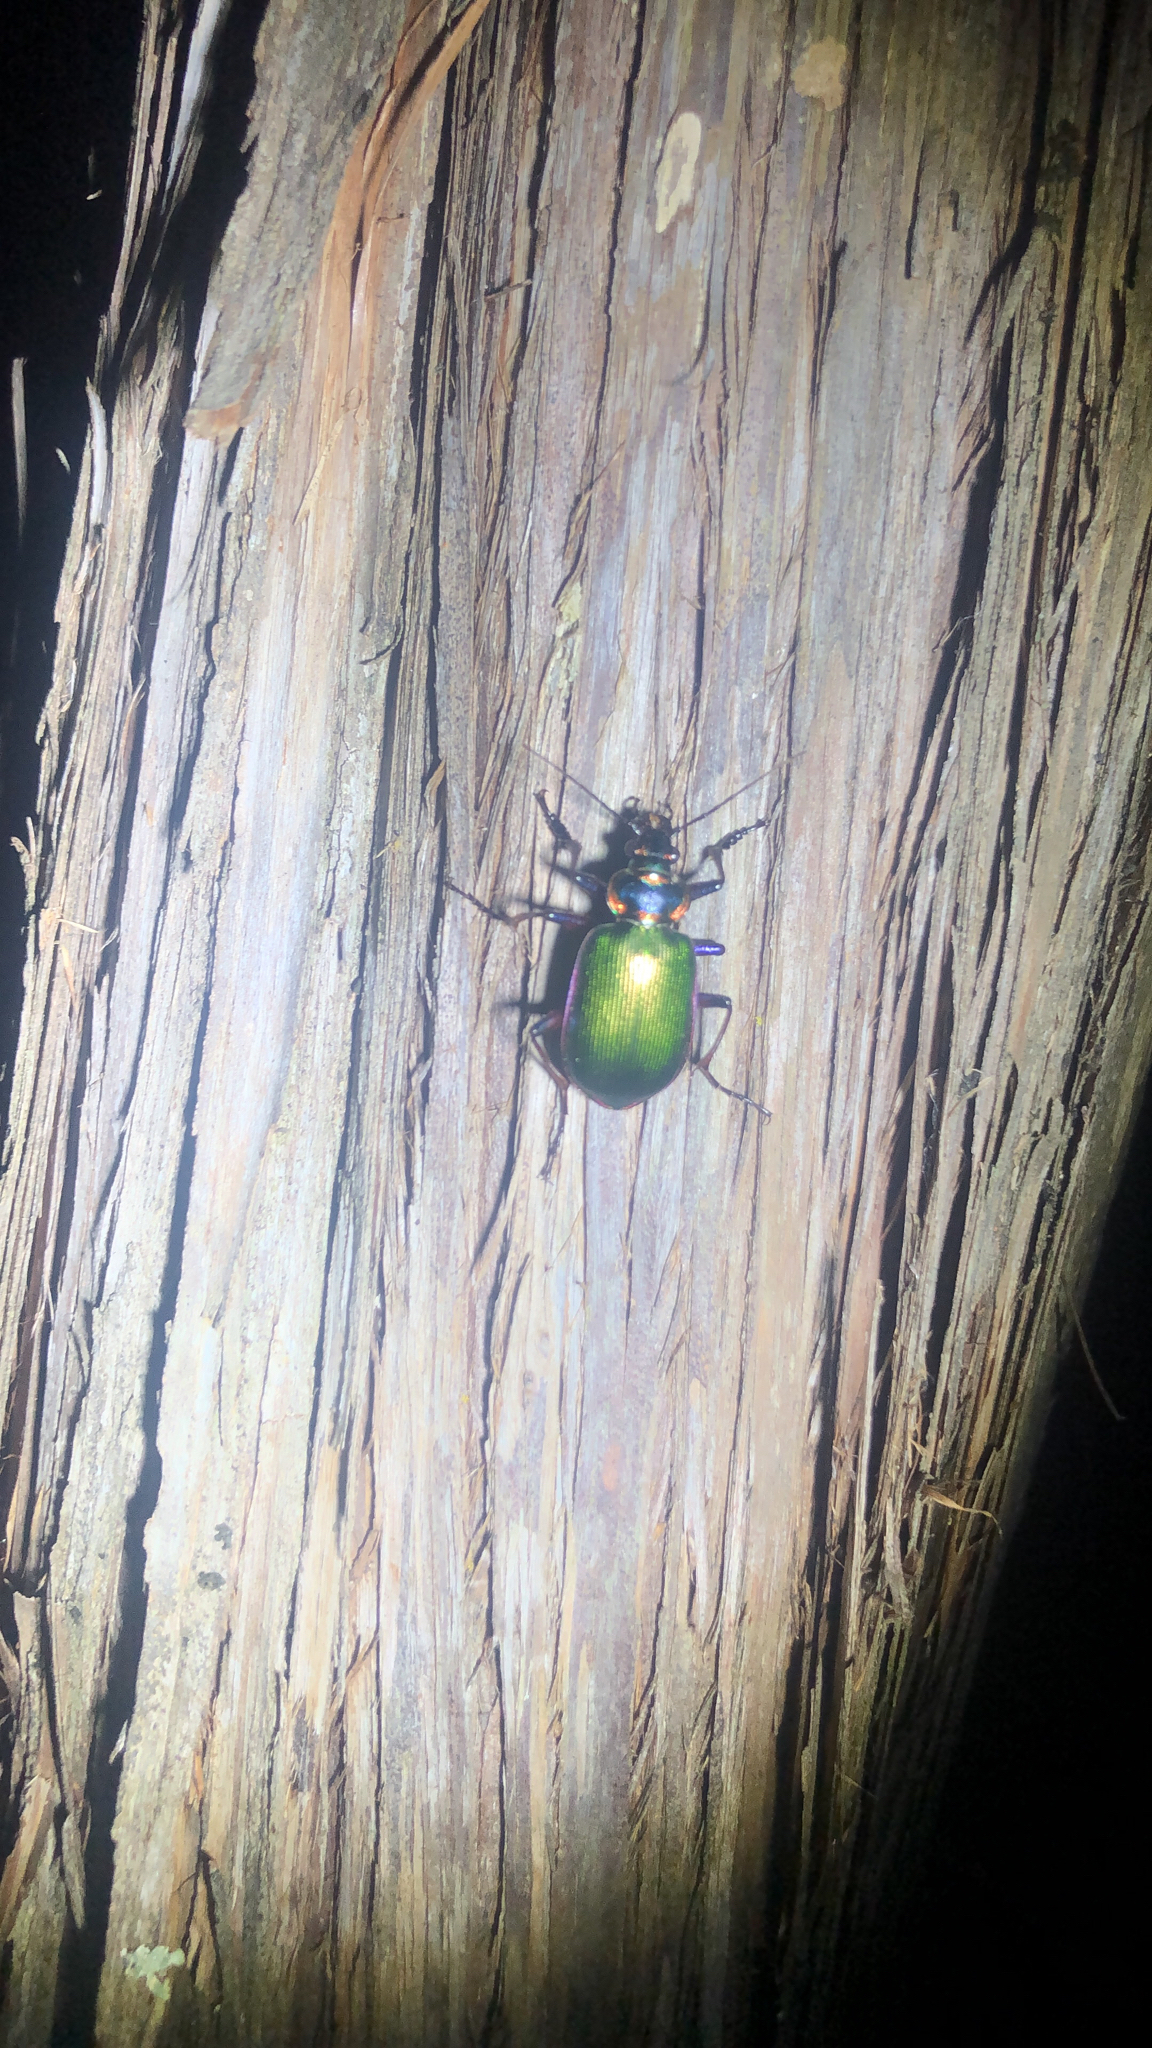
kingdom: Animalia
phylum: Arthropoda
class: Insecta
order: Coleoptera
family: Carabidae
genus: Calosoma
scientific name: Calosoma scrutator
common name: Fiery searcher beetle
